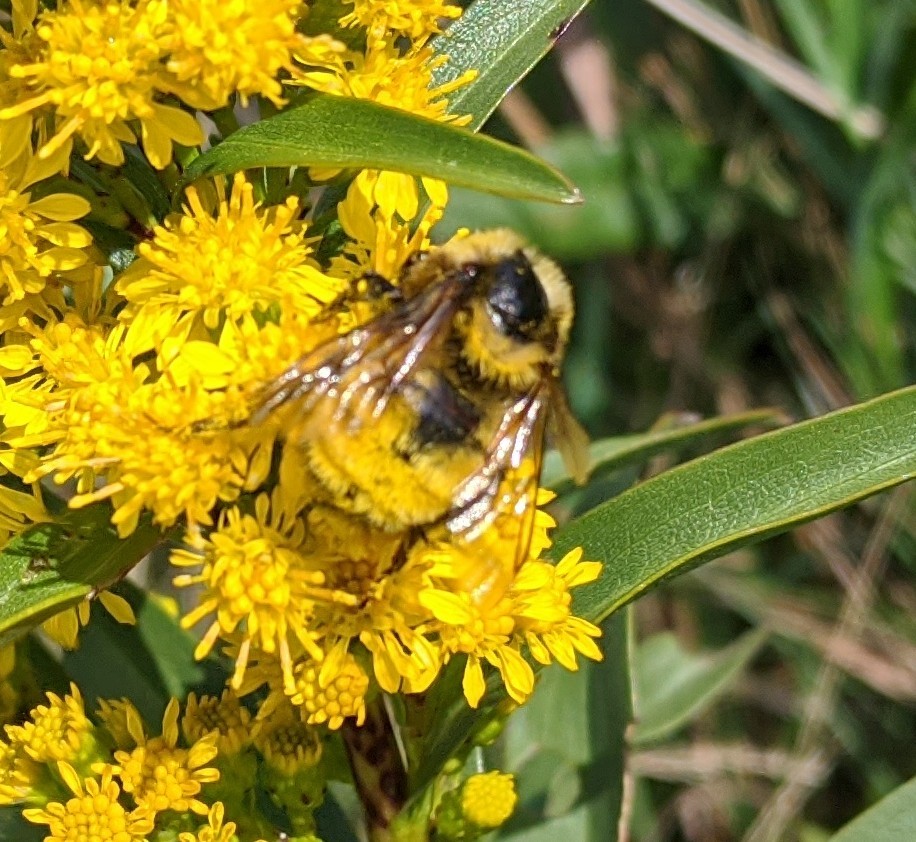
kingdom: Animalia
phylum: Arthropoda
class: Insecta
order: Hymenoptera
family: Apidae
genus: Bombus
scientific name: Bombus borealis
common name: Northern amber bumble bee
